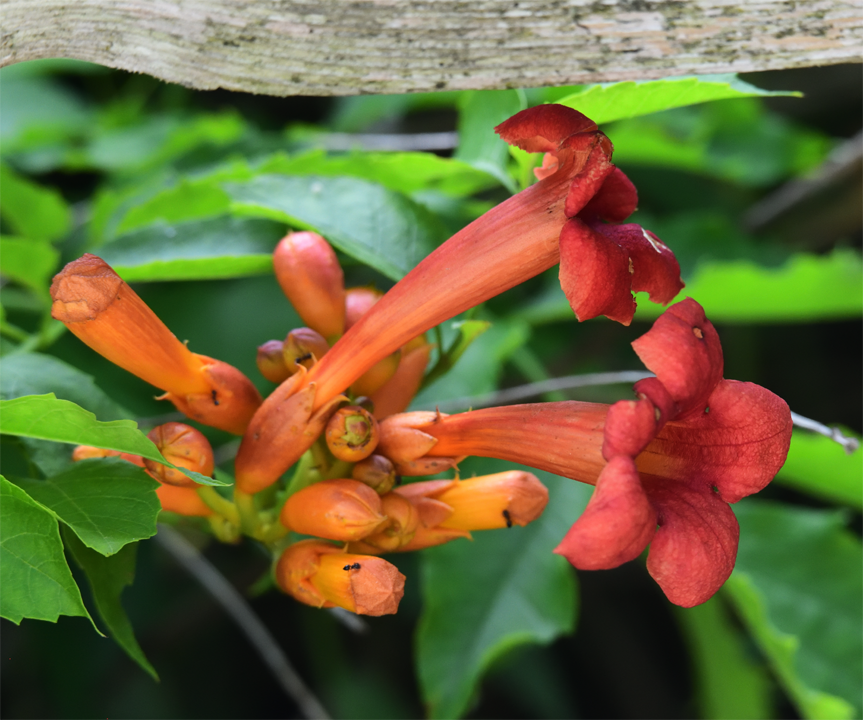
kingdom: Plantae
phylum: Tracheophyta
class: Magnoliopsida
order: Lamiales
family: Bignoniaceae
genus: Campsis
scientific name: Campsis radicans
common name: Trumpet-creeper
